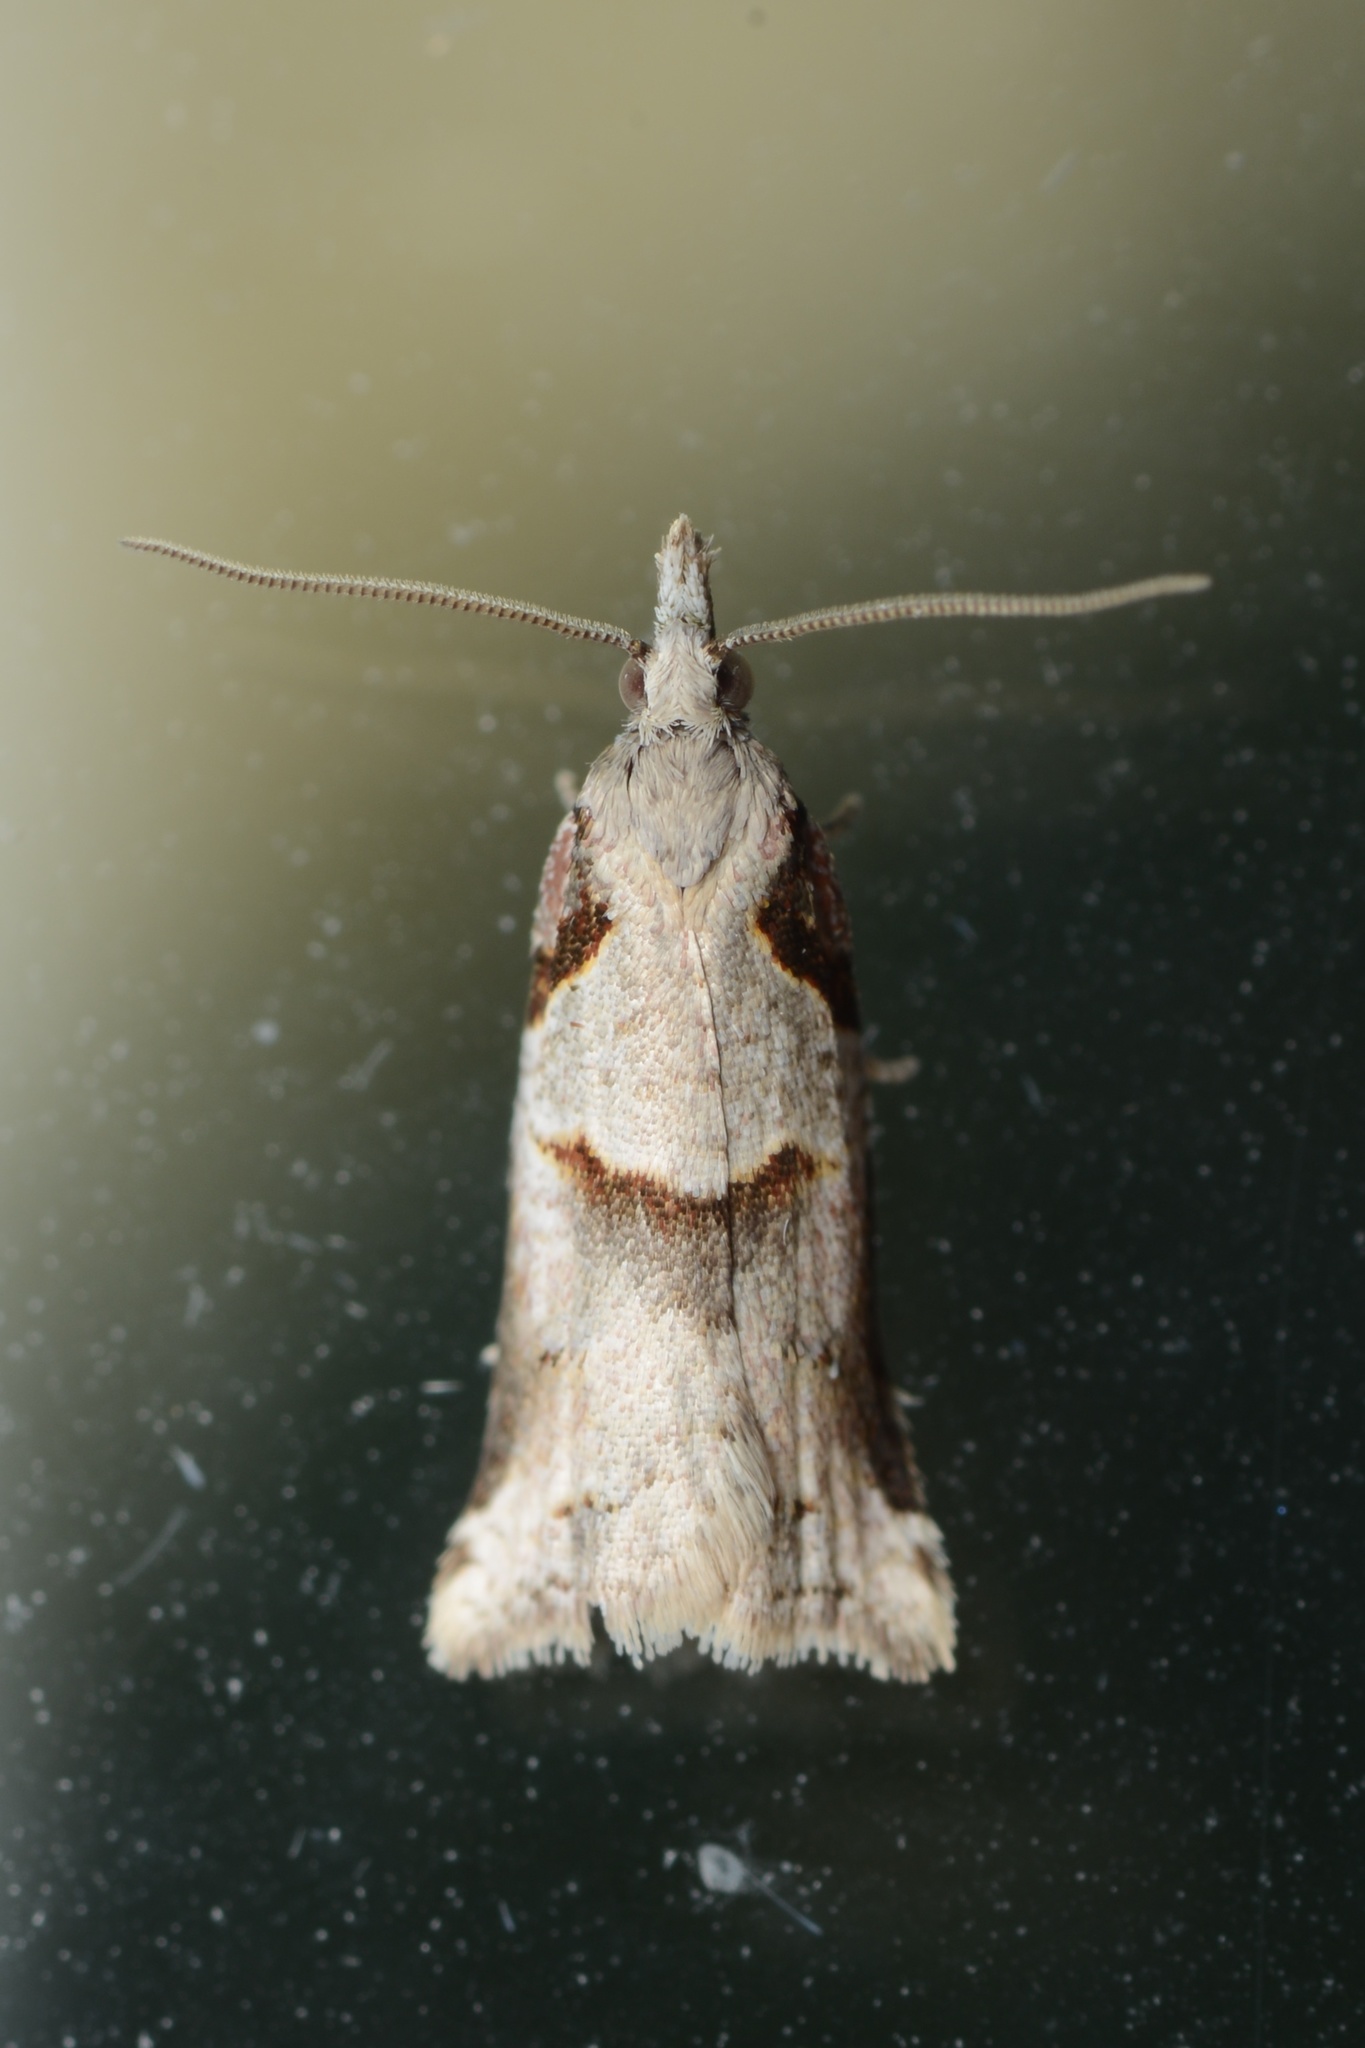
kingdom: Animalia
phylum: Arthropoda
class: Insecta
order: Lepidoptera
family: Tortricidae
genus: Harmologa
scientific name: Harmologa amplexana
